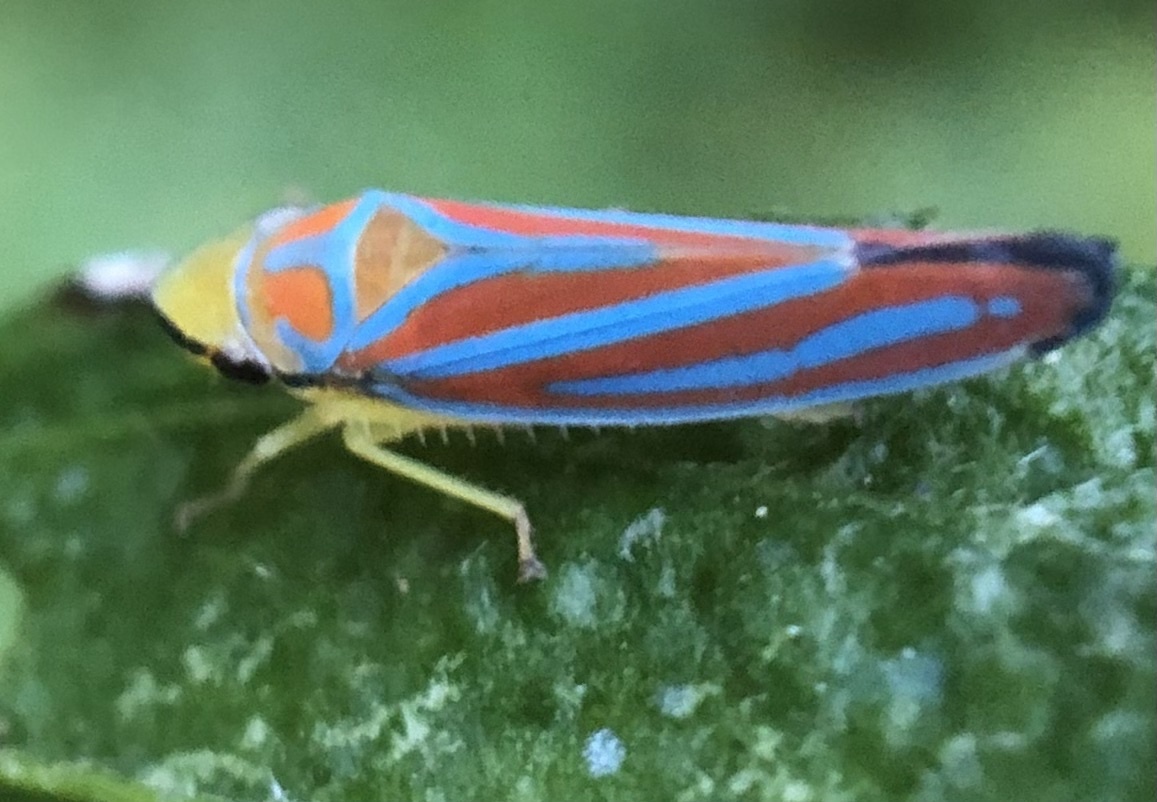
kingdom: Animalia
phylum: Arthropoda
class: Insecta
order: Hemiptera
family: Cicadellidae
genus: Graphocephala
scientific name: Graphocephala coccinea
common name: Candy-striped leafhopper
